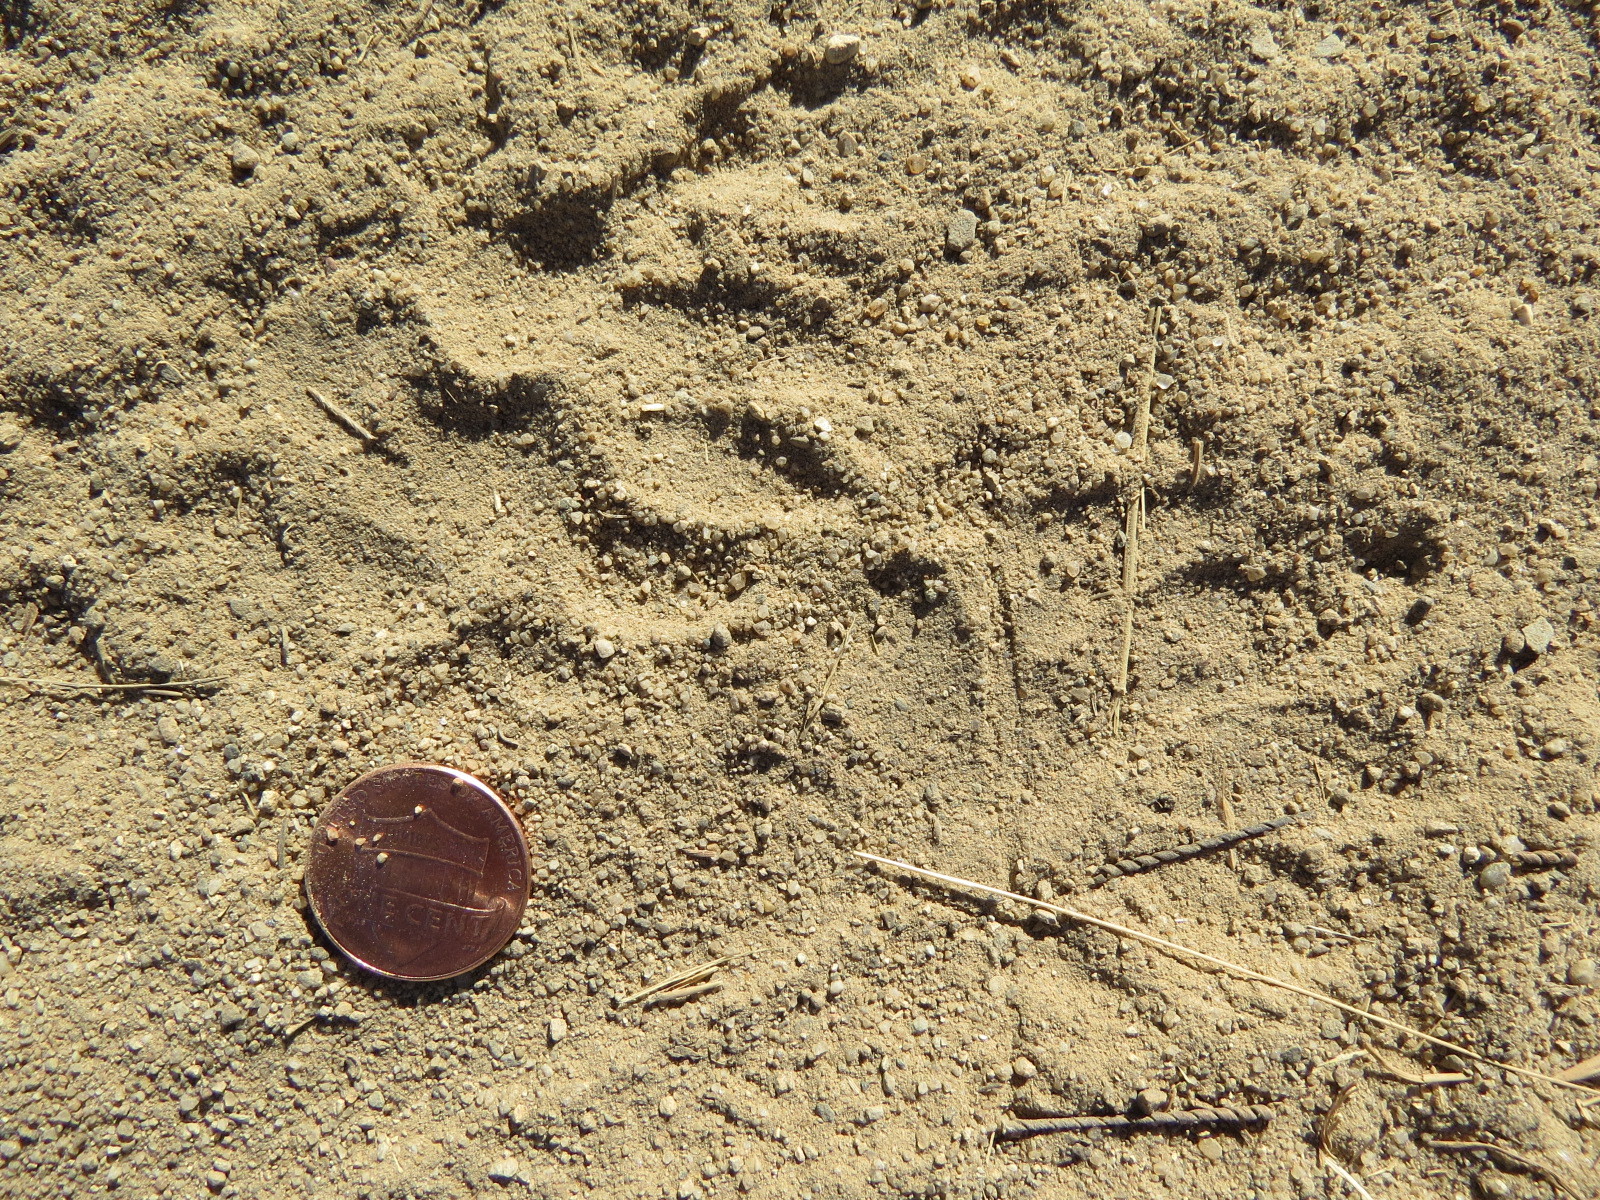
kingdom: Animalia
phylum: Chordata
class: Mammalia
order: Carnivora
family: Mustelidae
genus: Taxidea
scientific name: Taxidea taxus
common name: American badger
